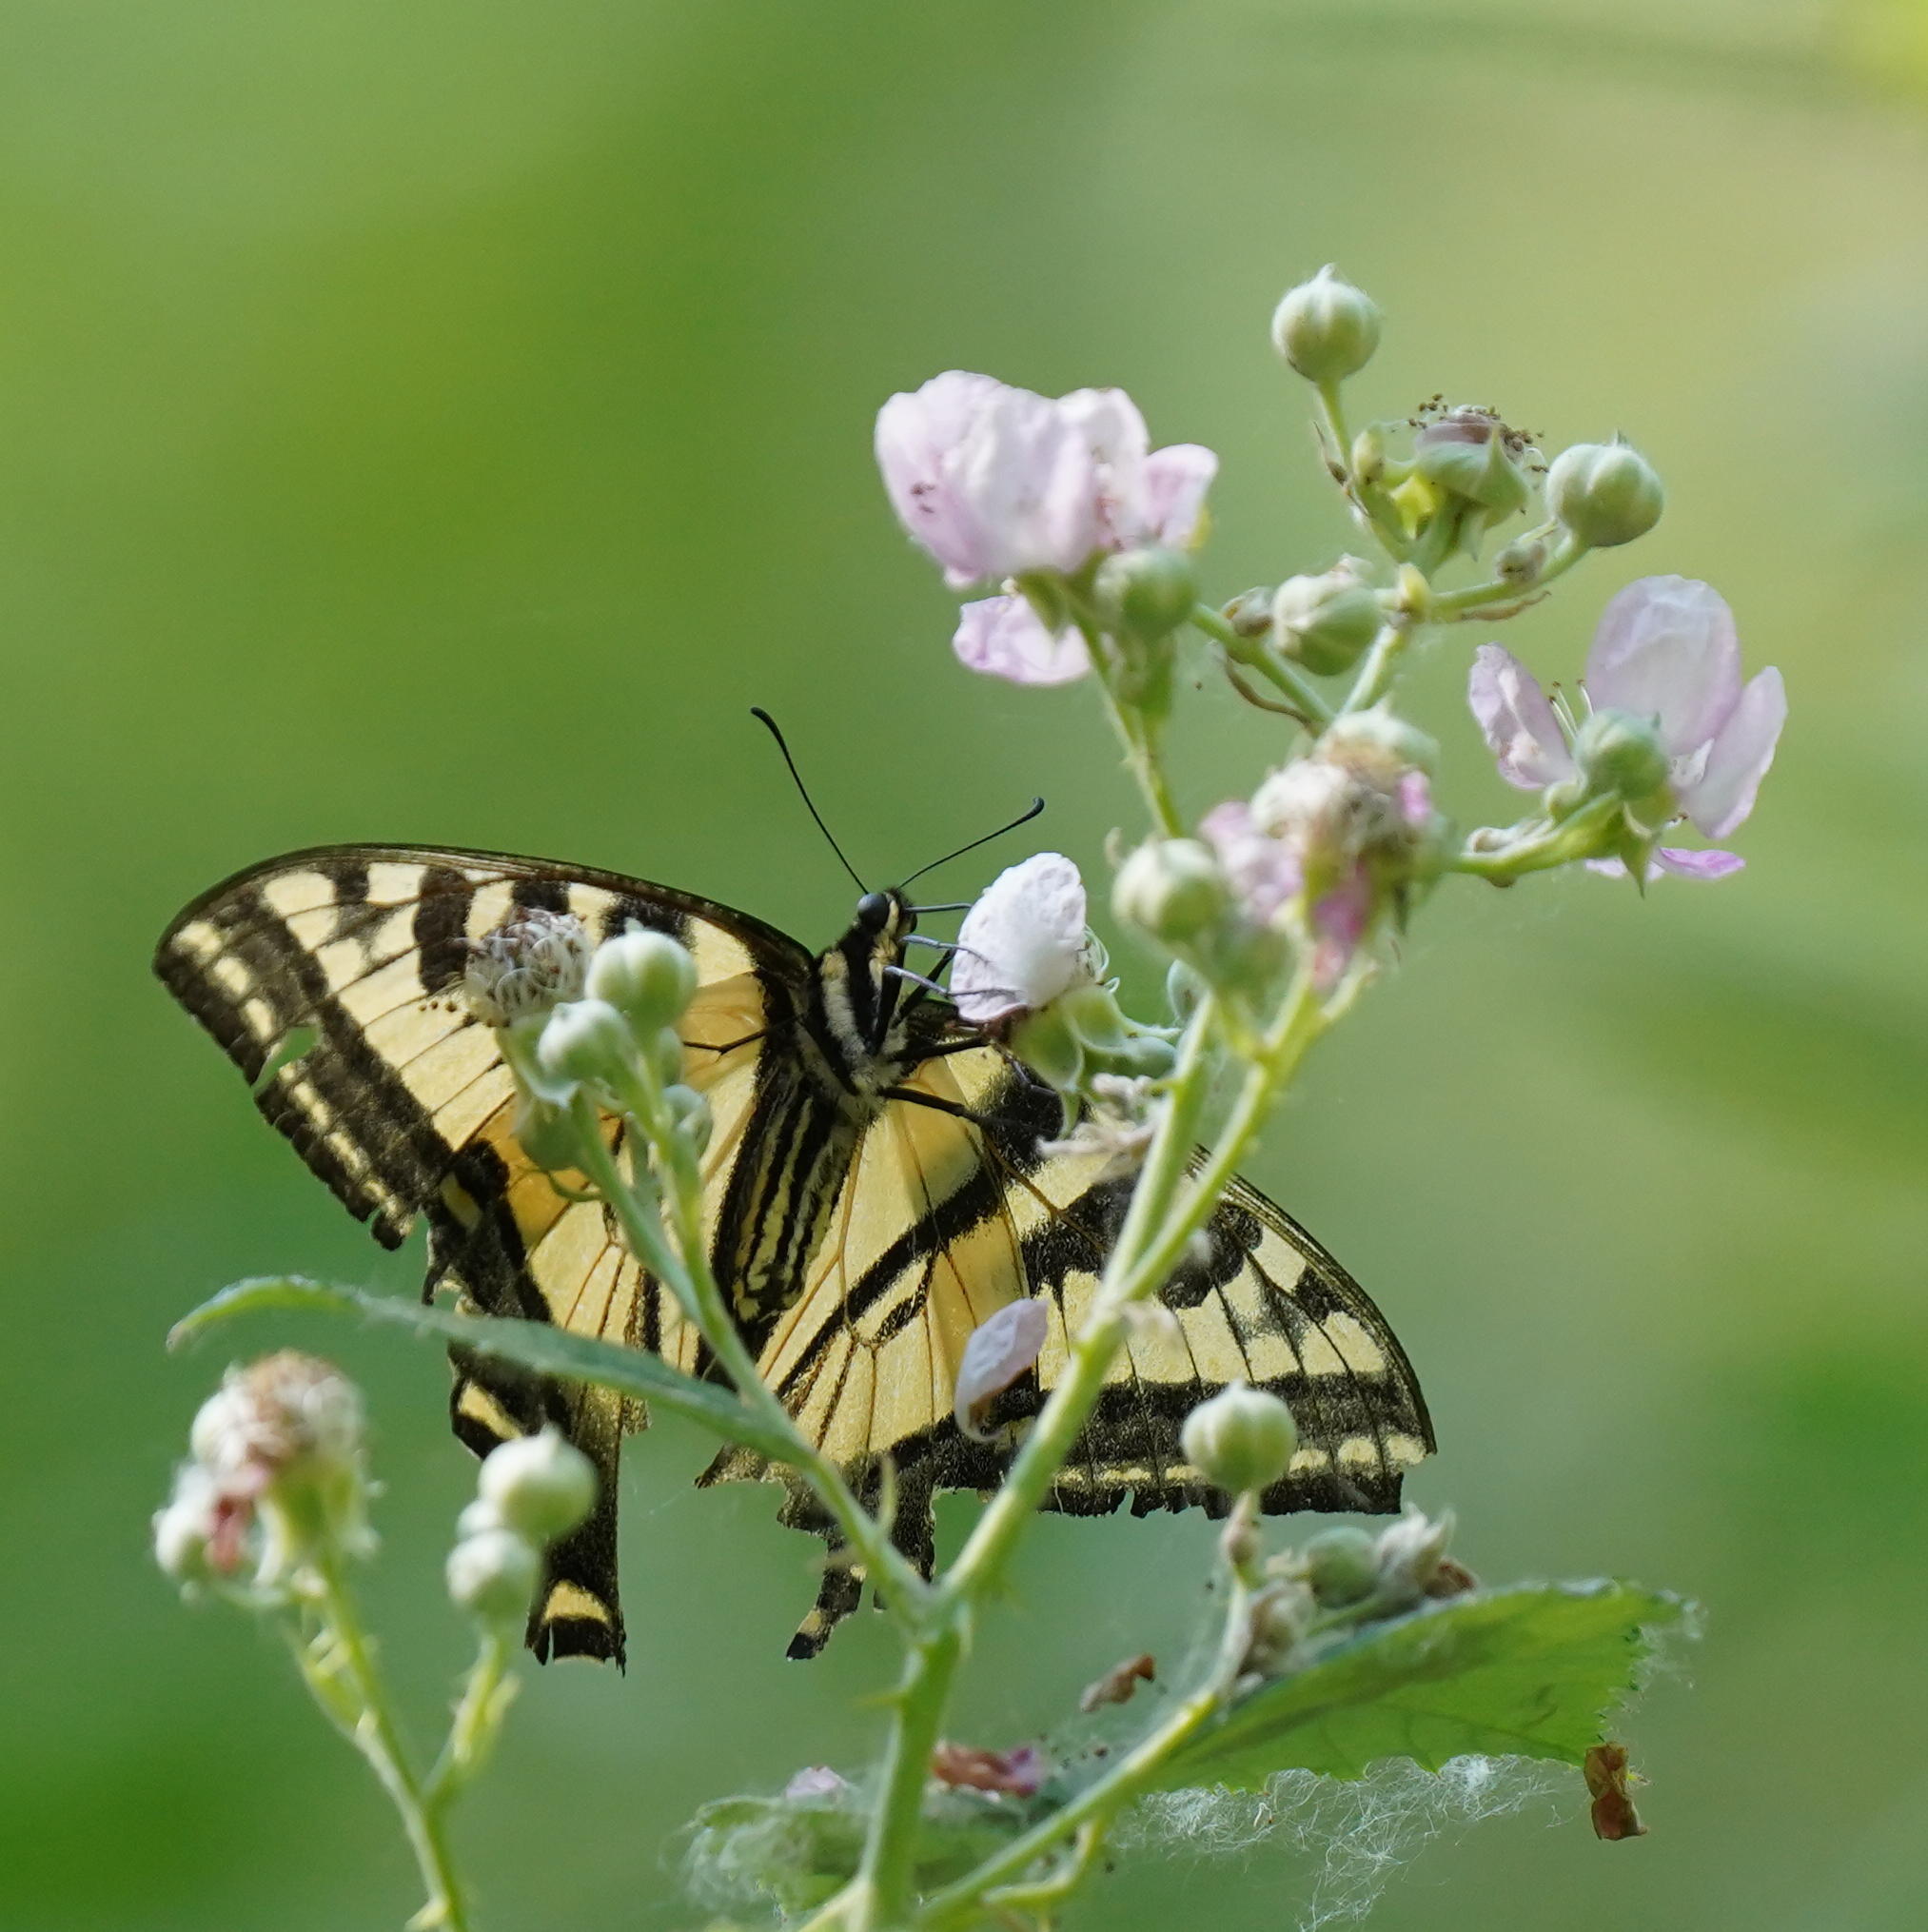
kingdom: Animalia
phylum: Arthropoda
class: Insecta
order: Lepidoptera
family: Papilionidae
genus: Papilio
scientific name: Papilio rutulus
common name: Western tiger swallowtail
